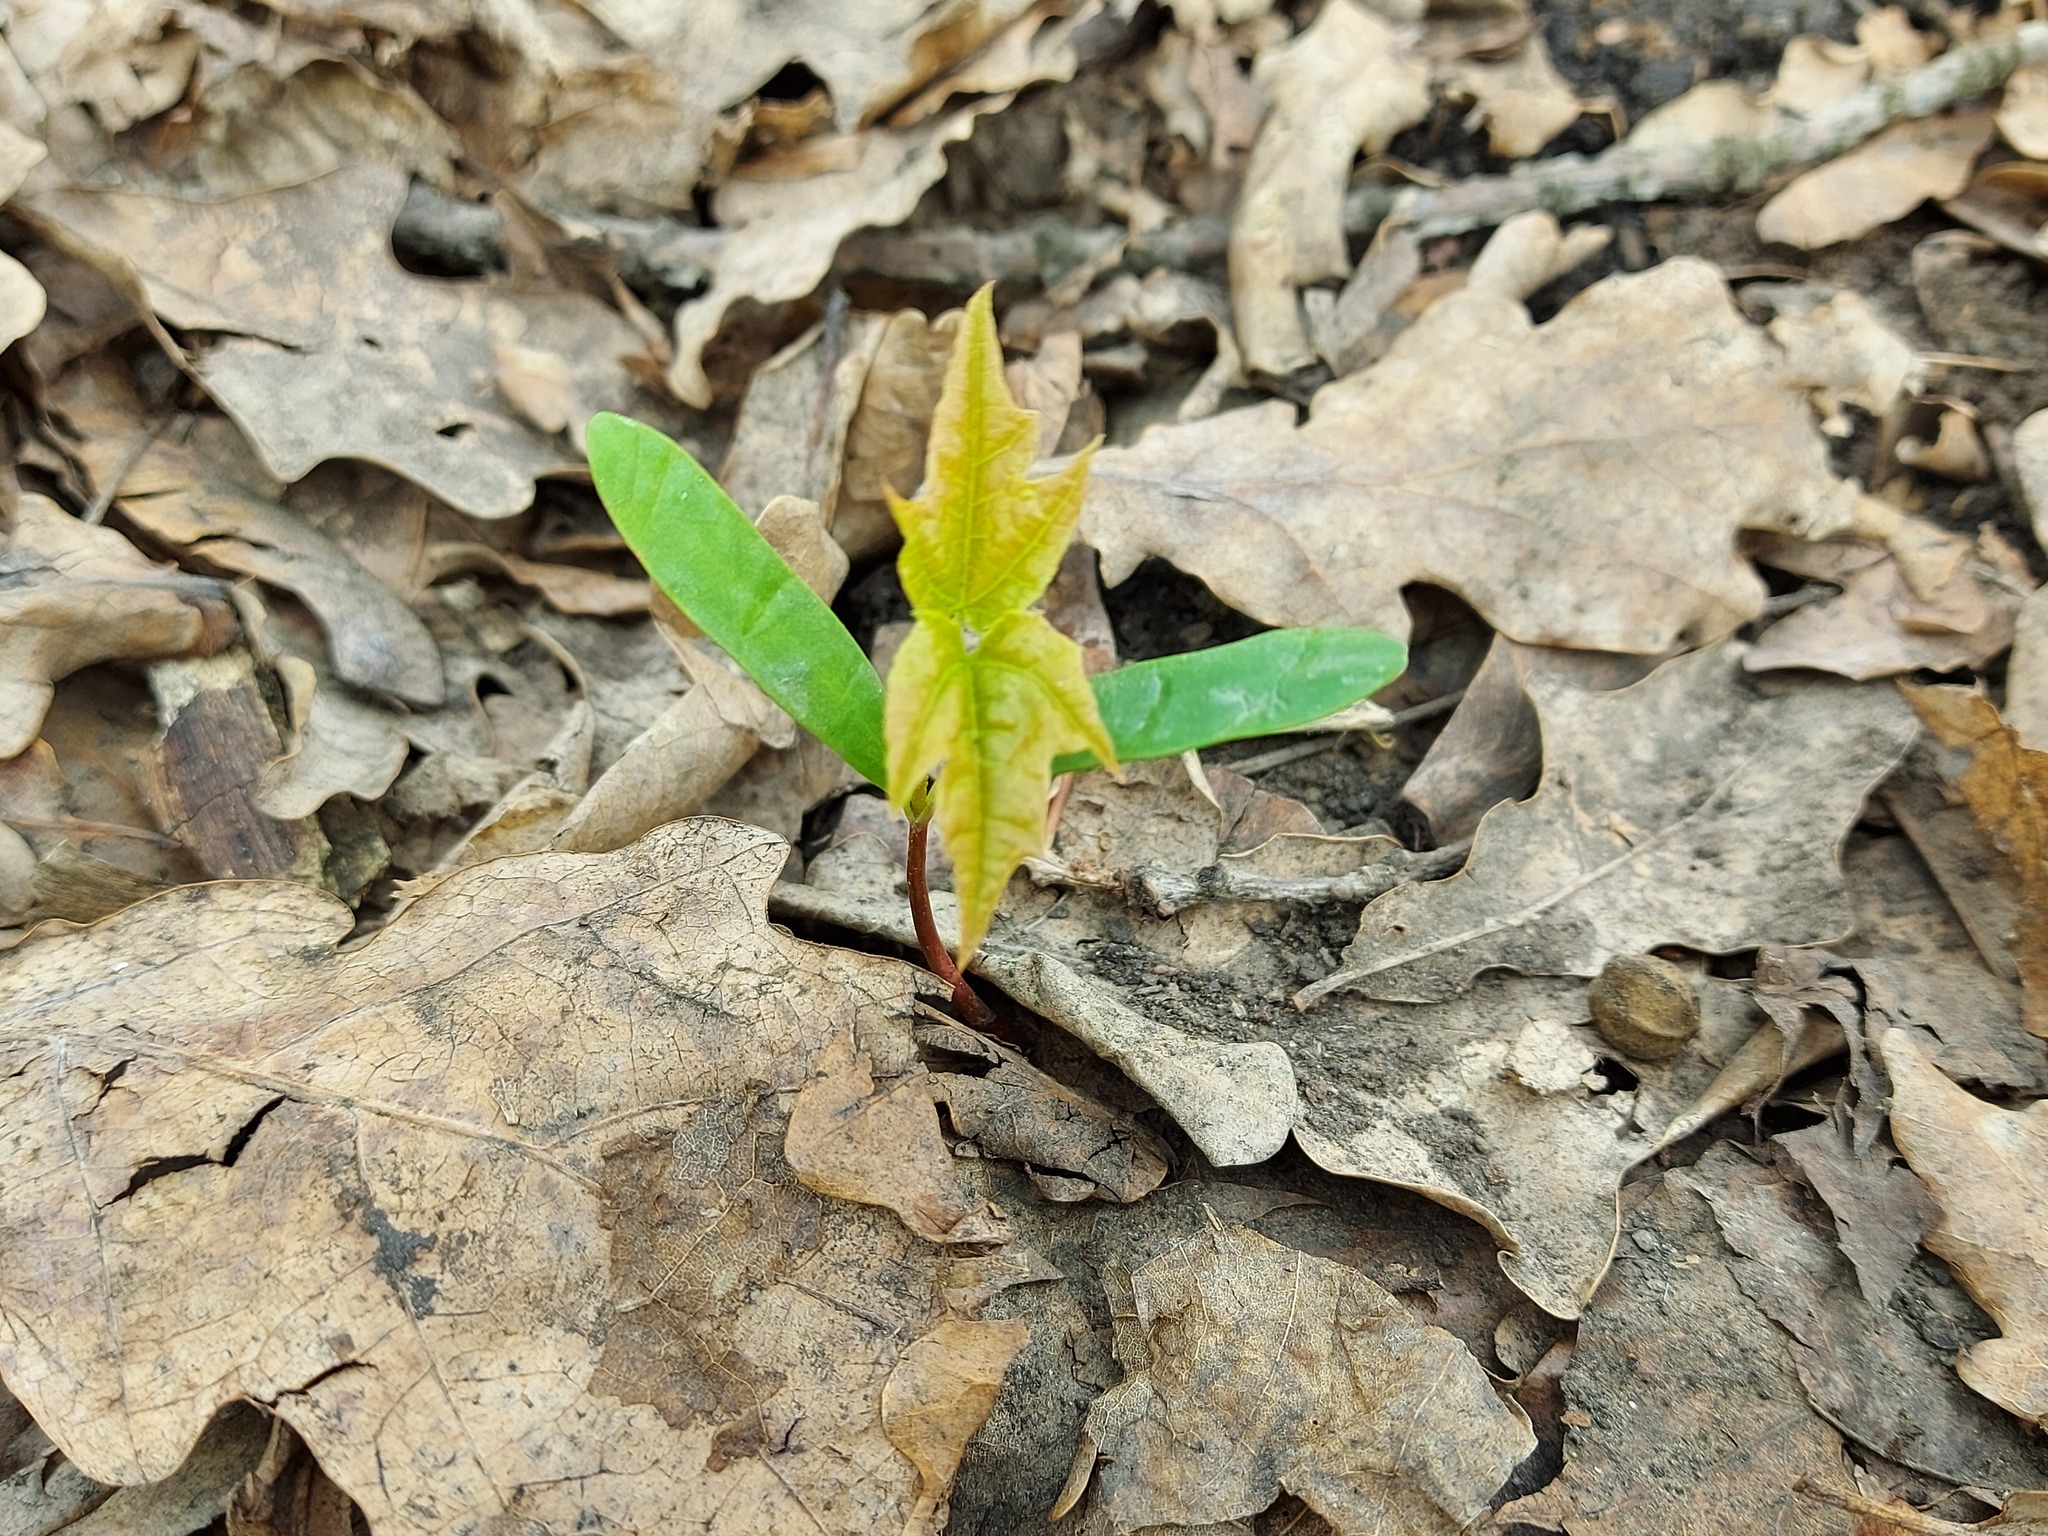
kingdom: Plantae
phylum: Tracheophyta
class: Magnoliopsida
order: Sapindales
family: Sapindaceae
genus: Acer
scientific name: Acer platanoides
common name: Norway maple
